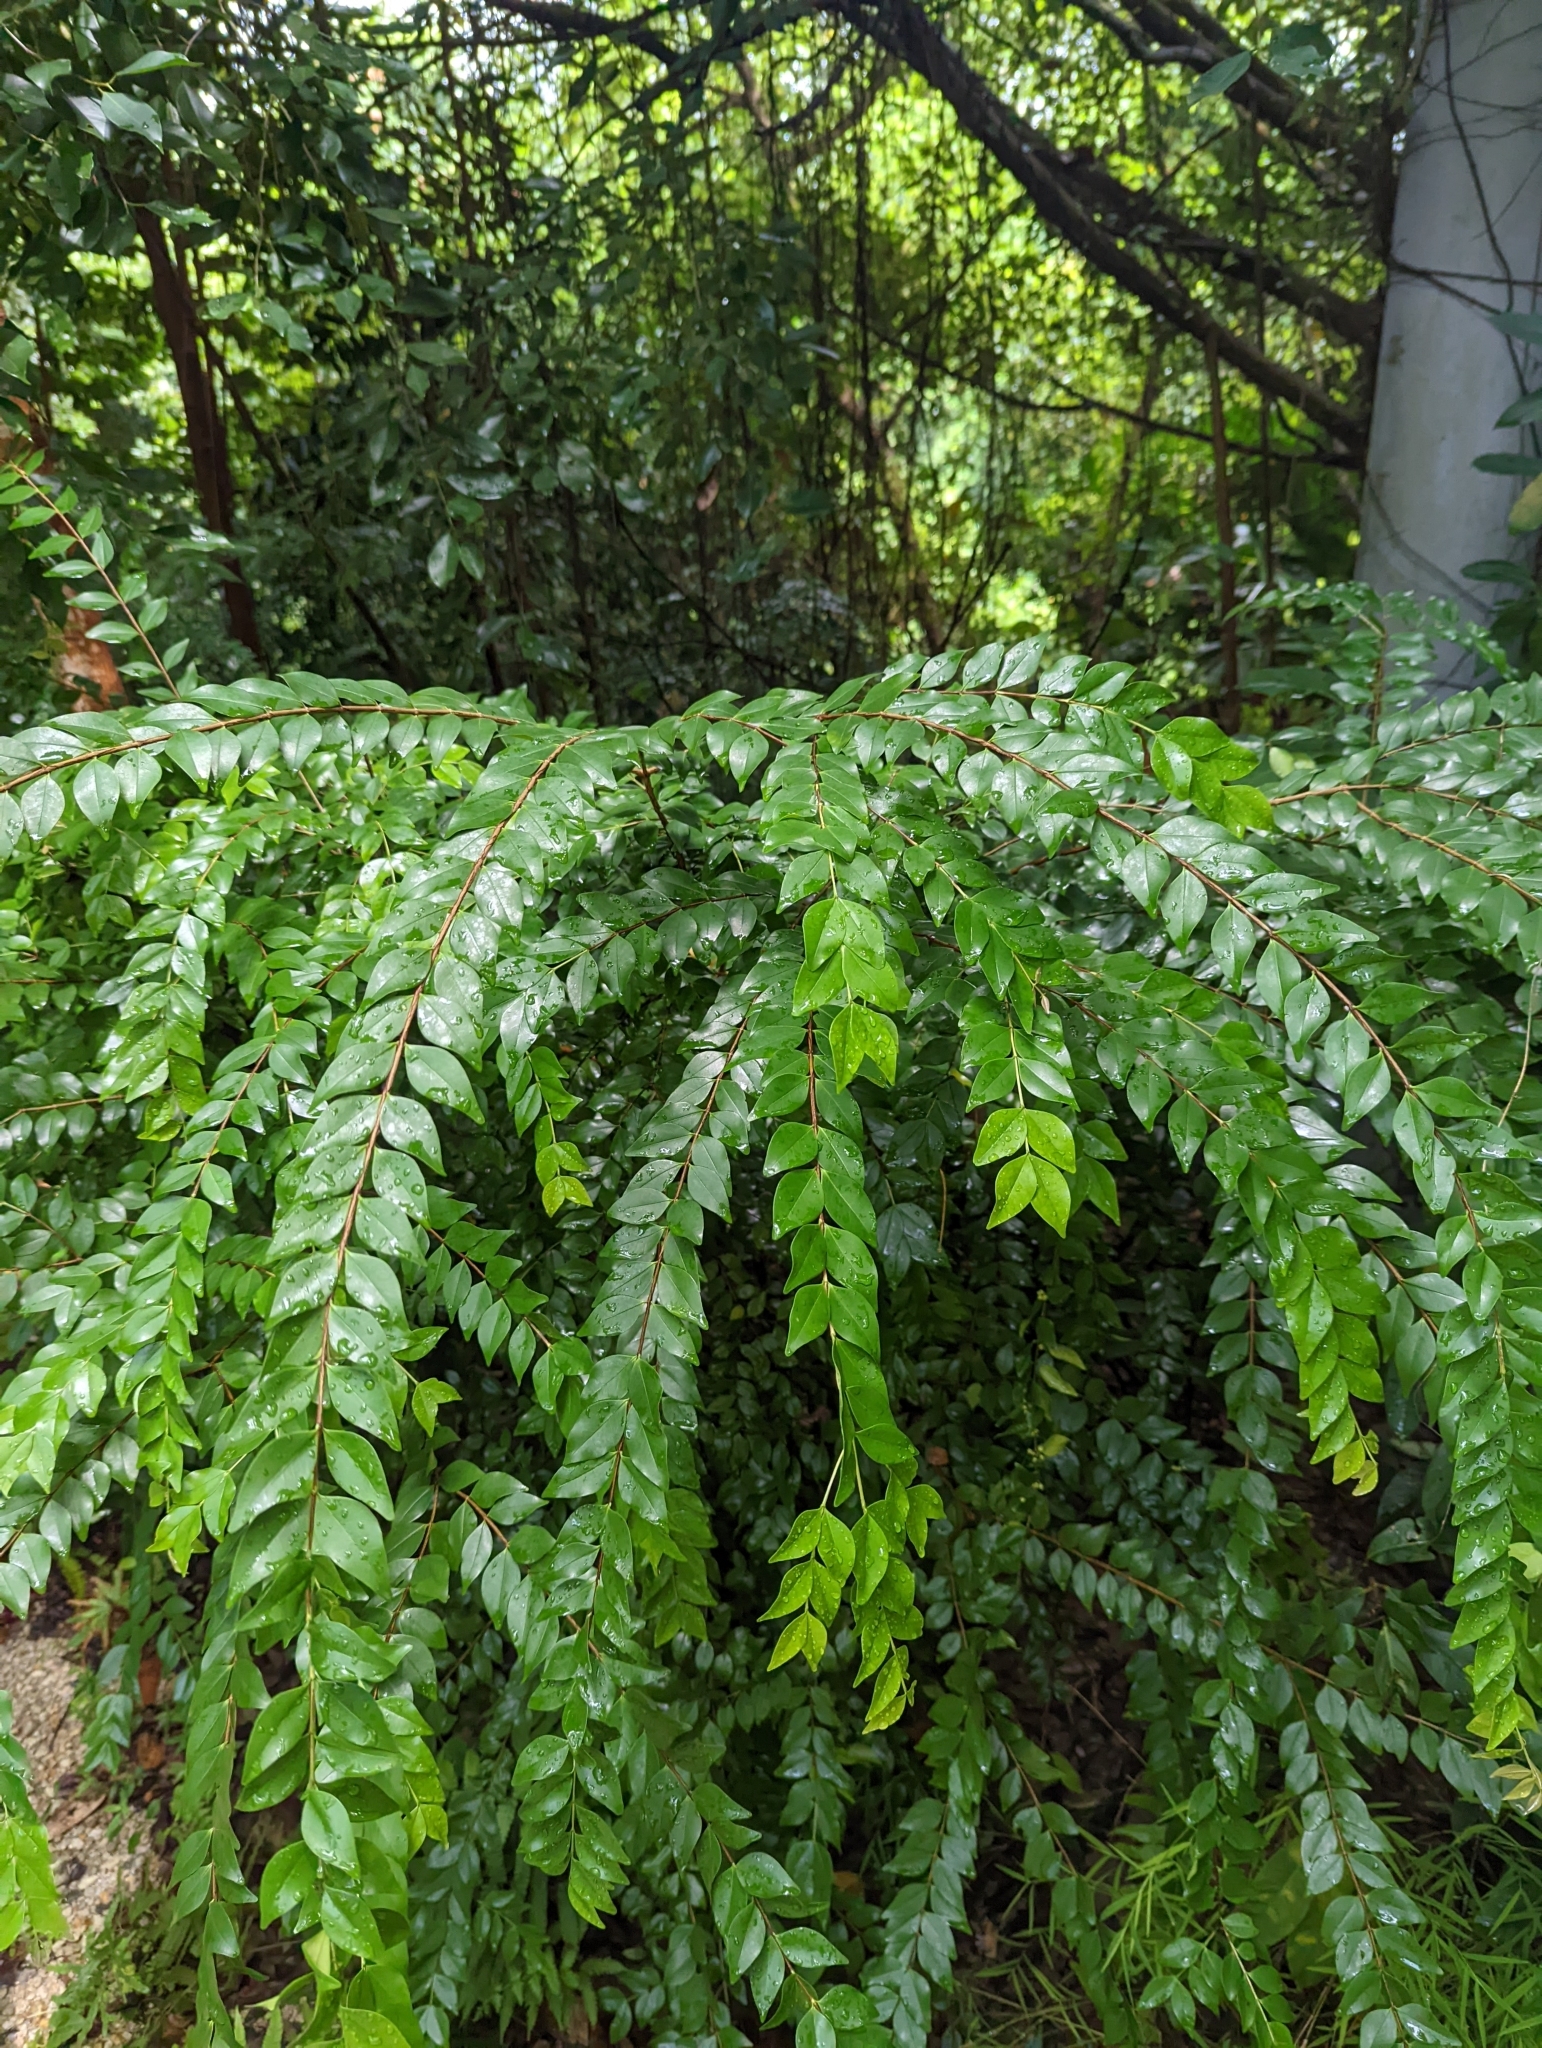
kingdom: Plantae
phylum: Tracheophyta
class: Magnoliopsida
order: Myrtales
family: Melastomataceae
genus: Memecylon
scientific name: Memecylon pauciflorum
